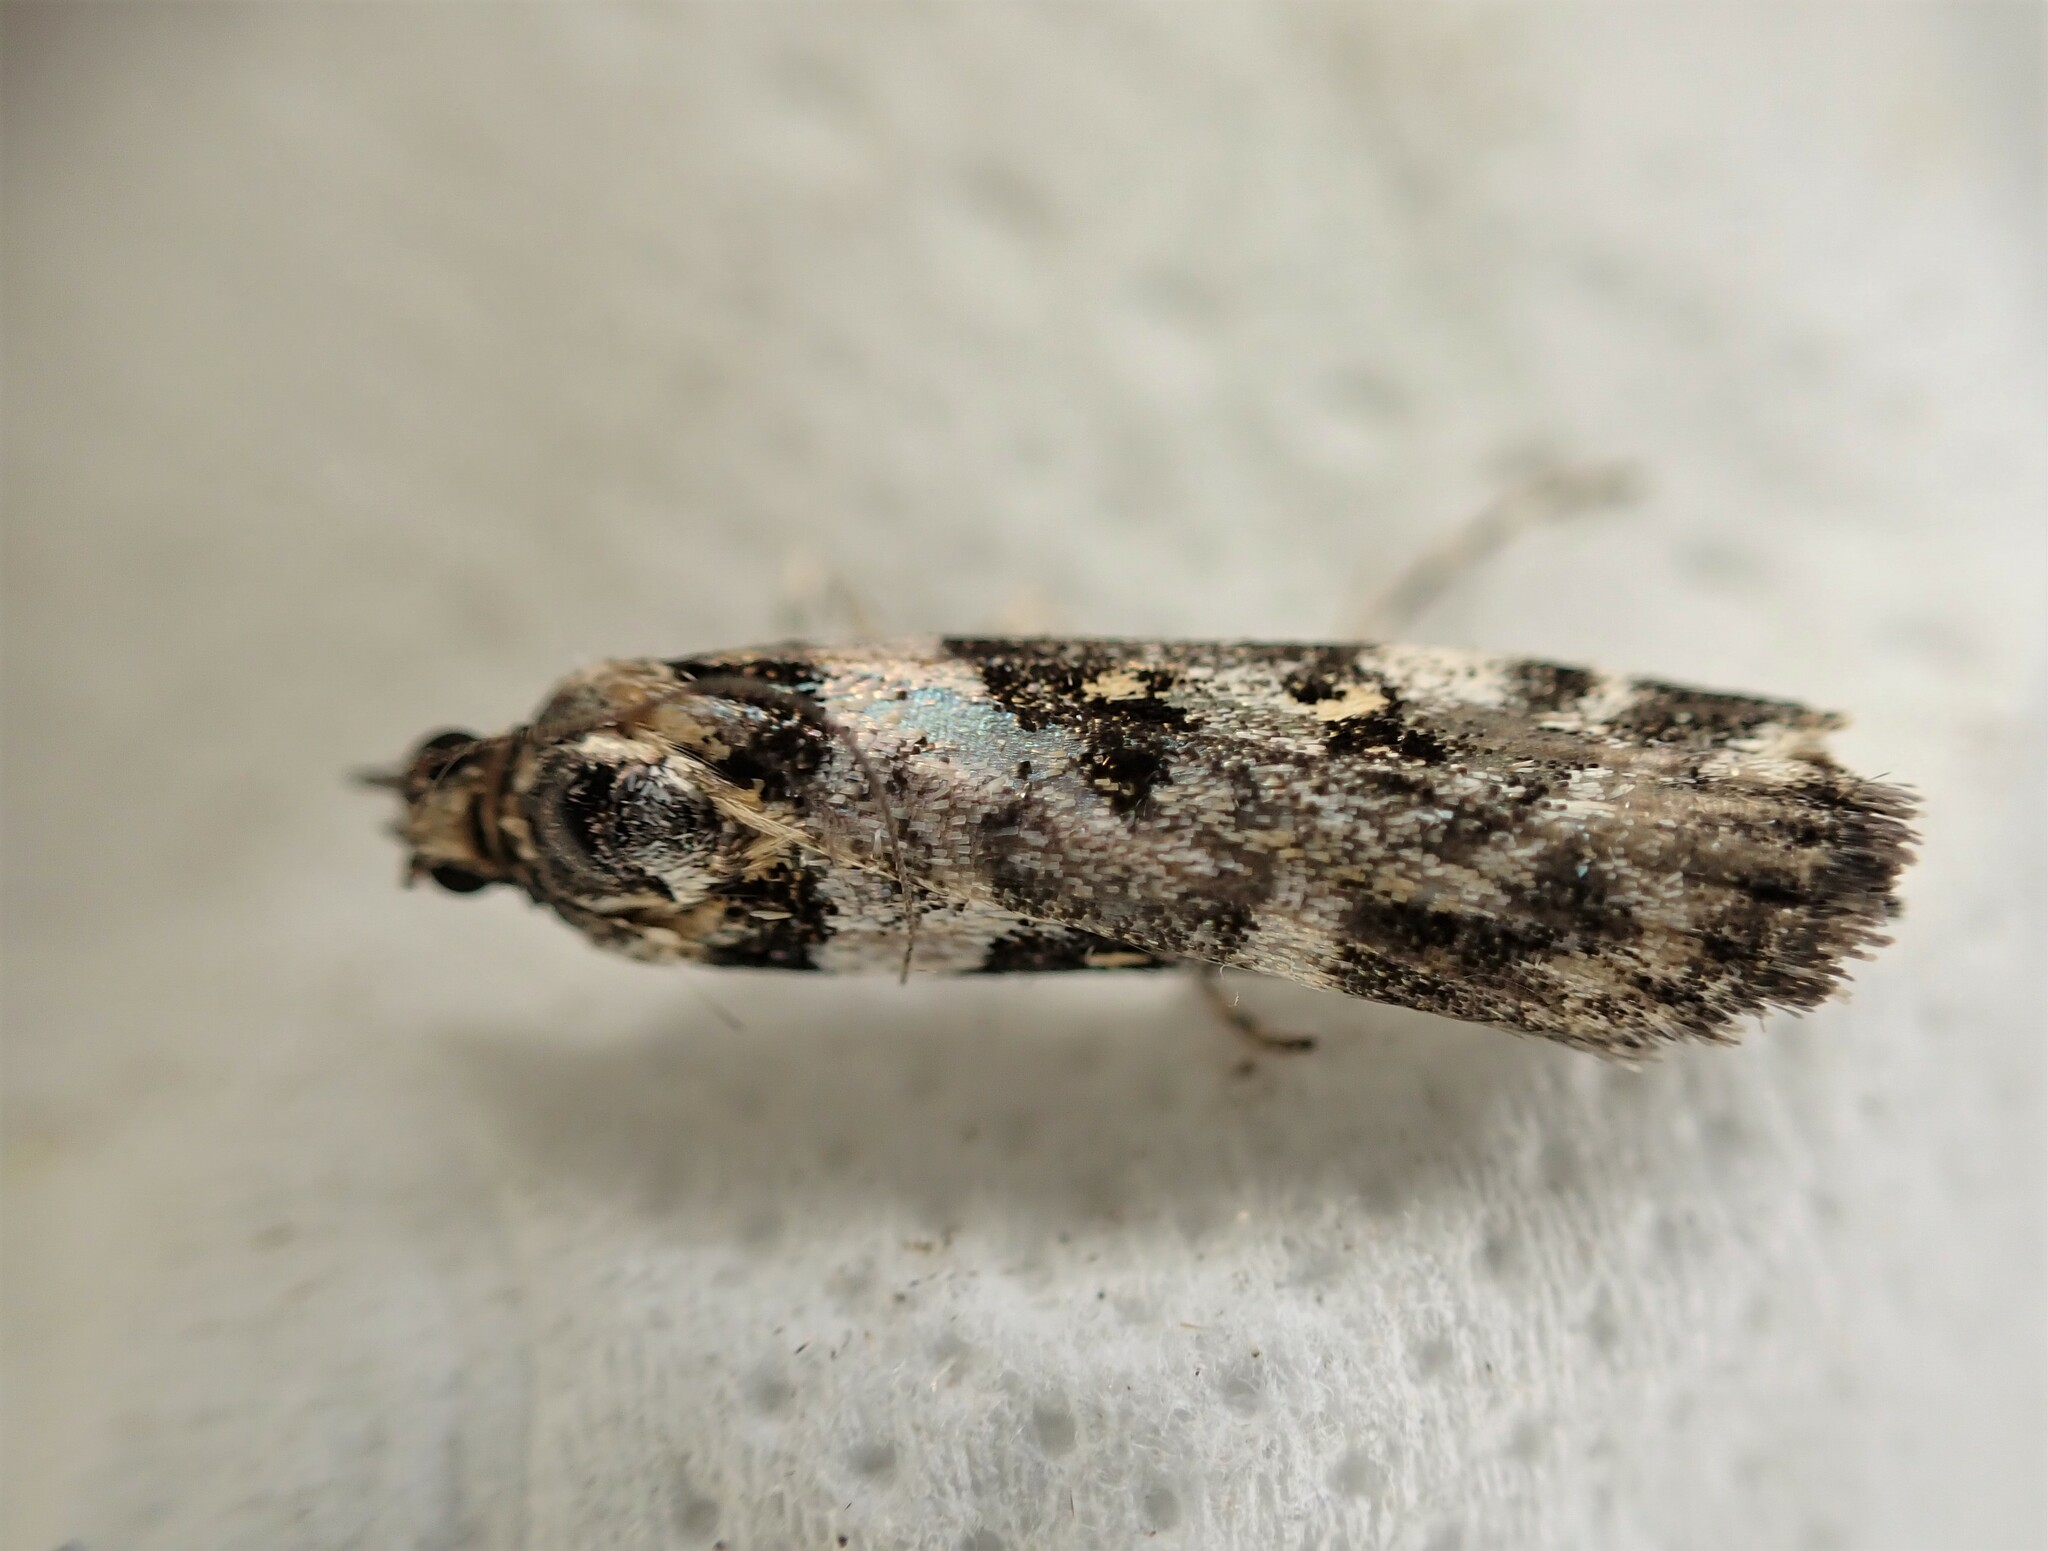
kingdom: Animalia
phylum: Arthropoda
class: Insecta
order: Lepidoptera
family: Crambidae
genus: Eudonia
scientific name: Eudonia diphtheralis
